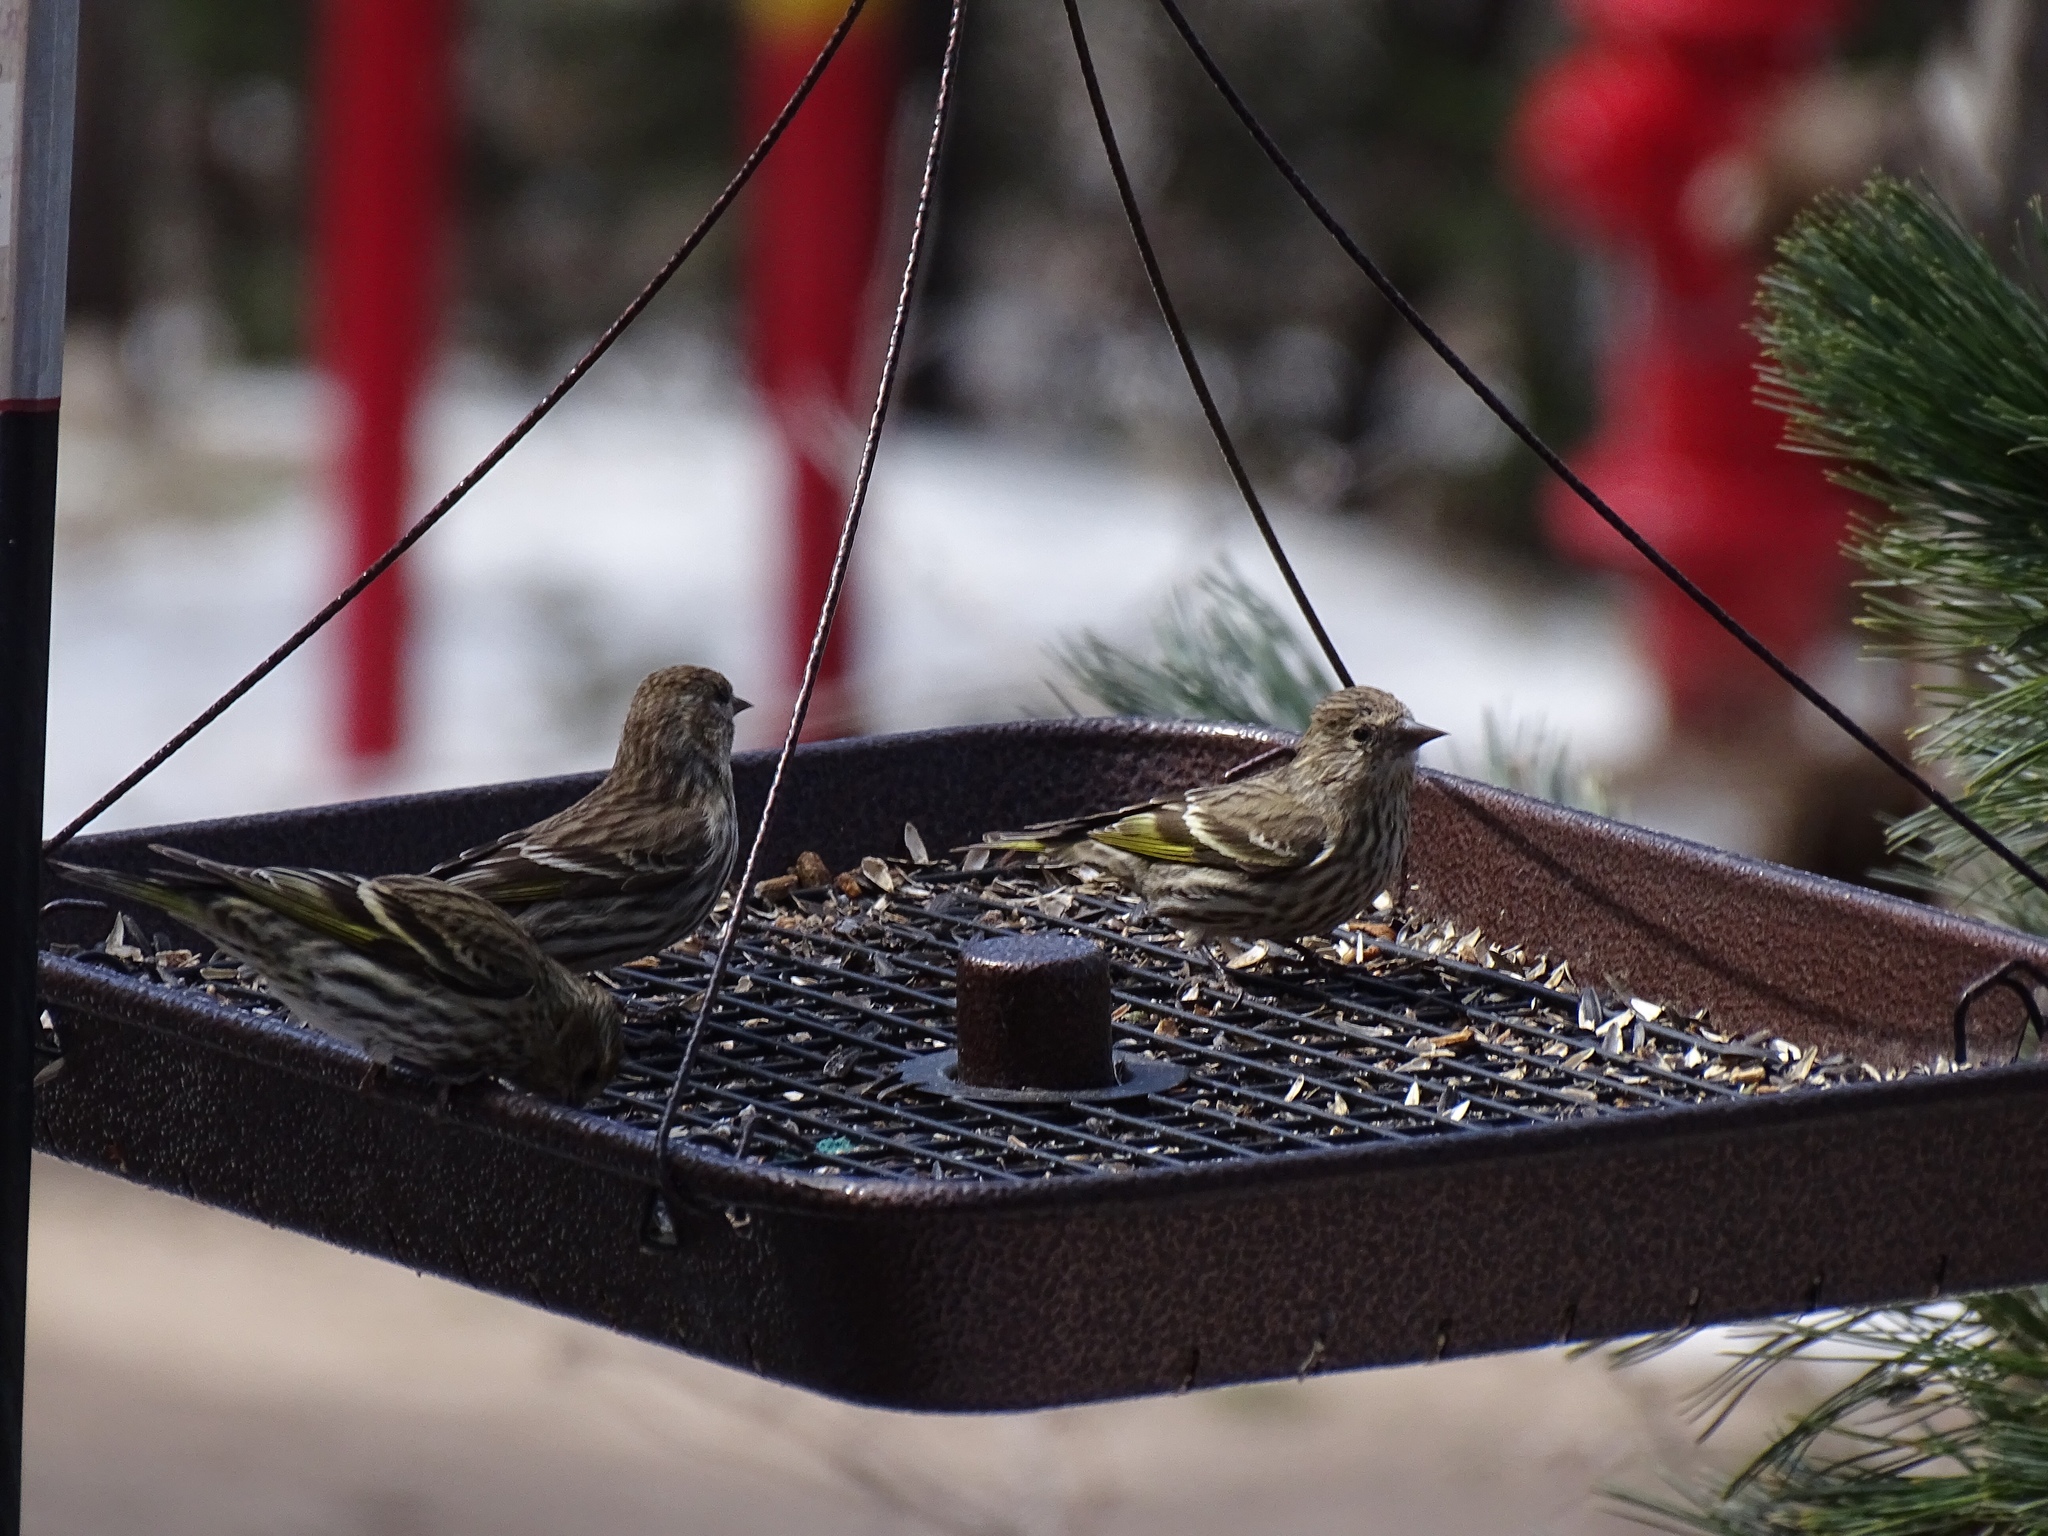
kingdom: Animalia
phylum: Chordata
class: Aves
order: Passeriformes
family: Fringillidae
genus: Spinus
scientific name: Spinus pinus
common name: Pine siskin
